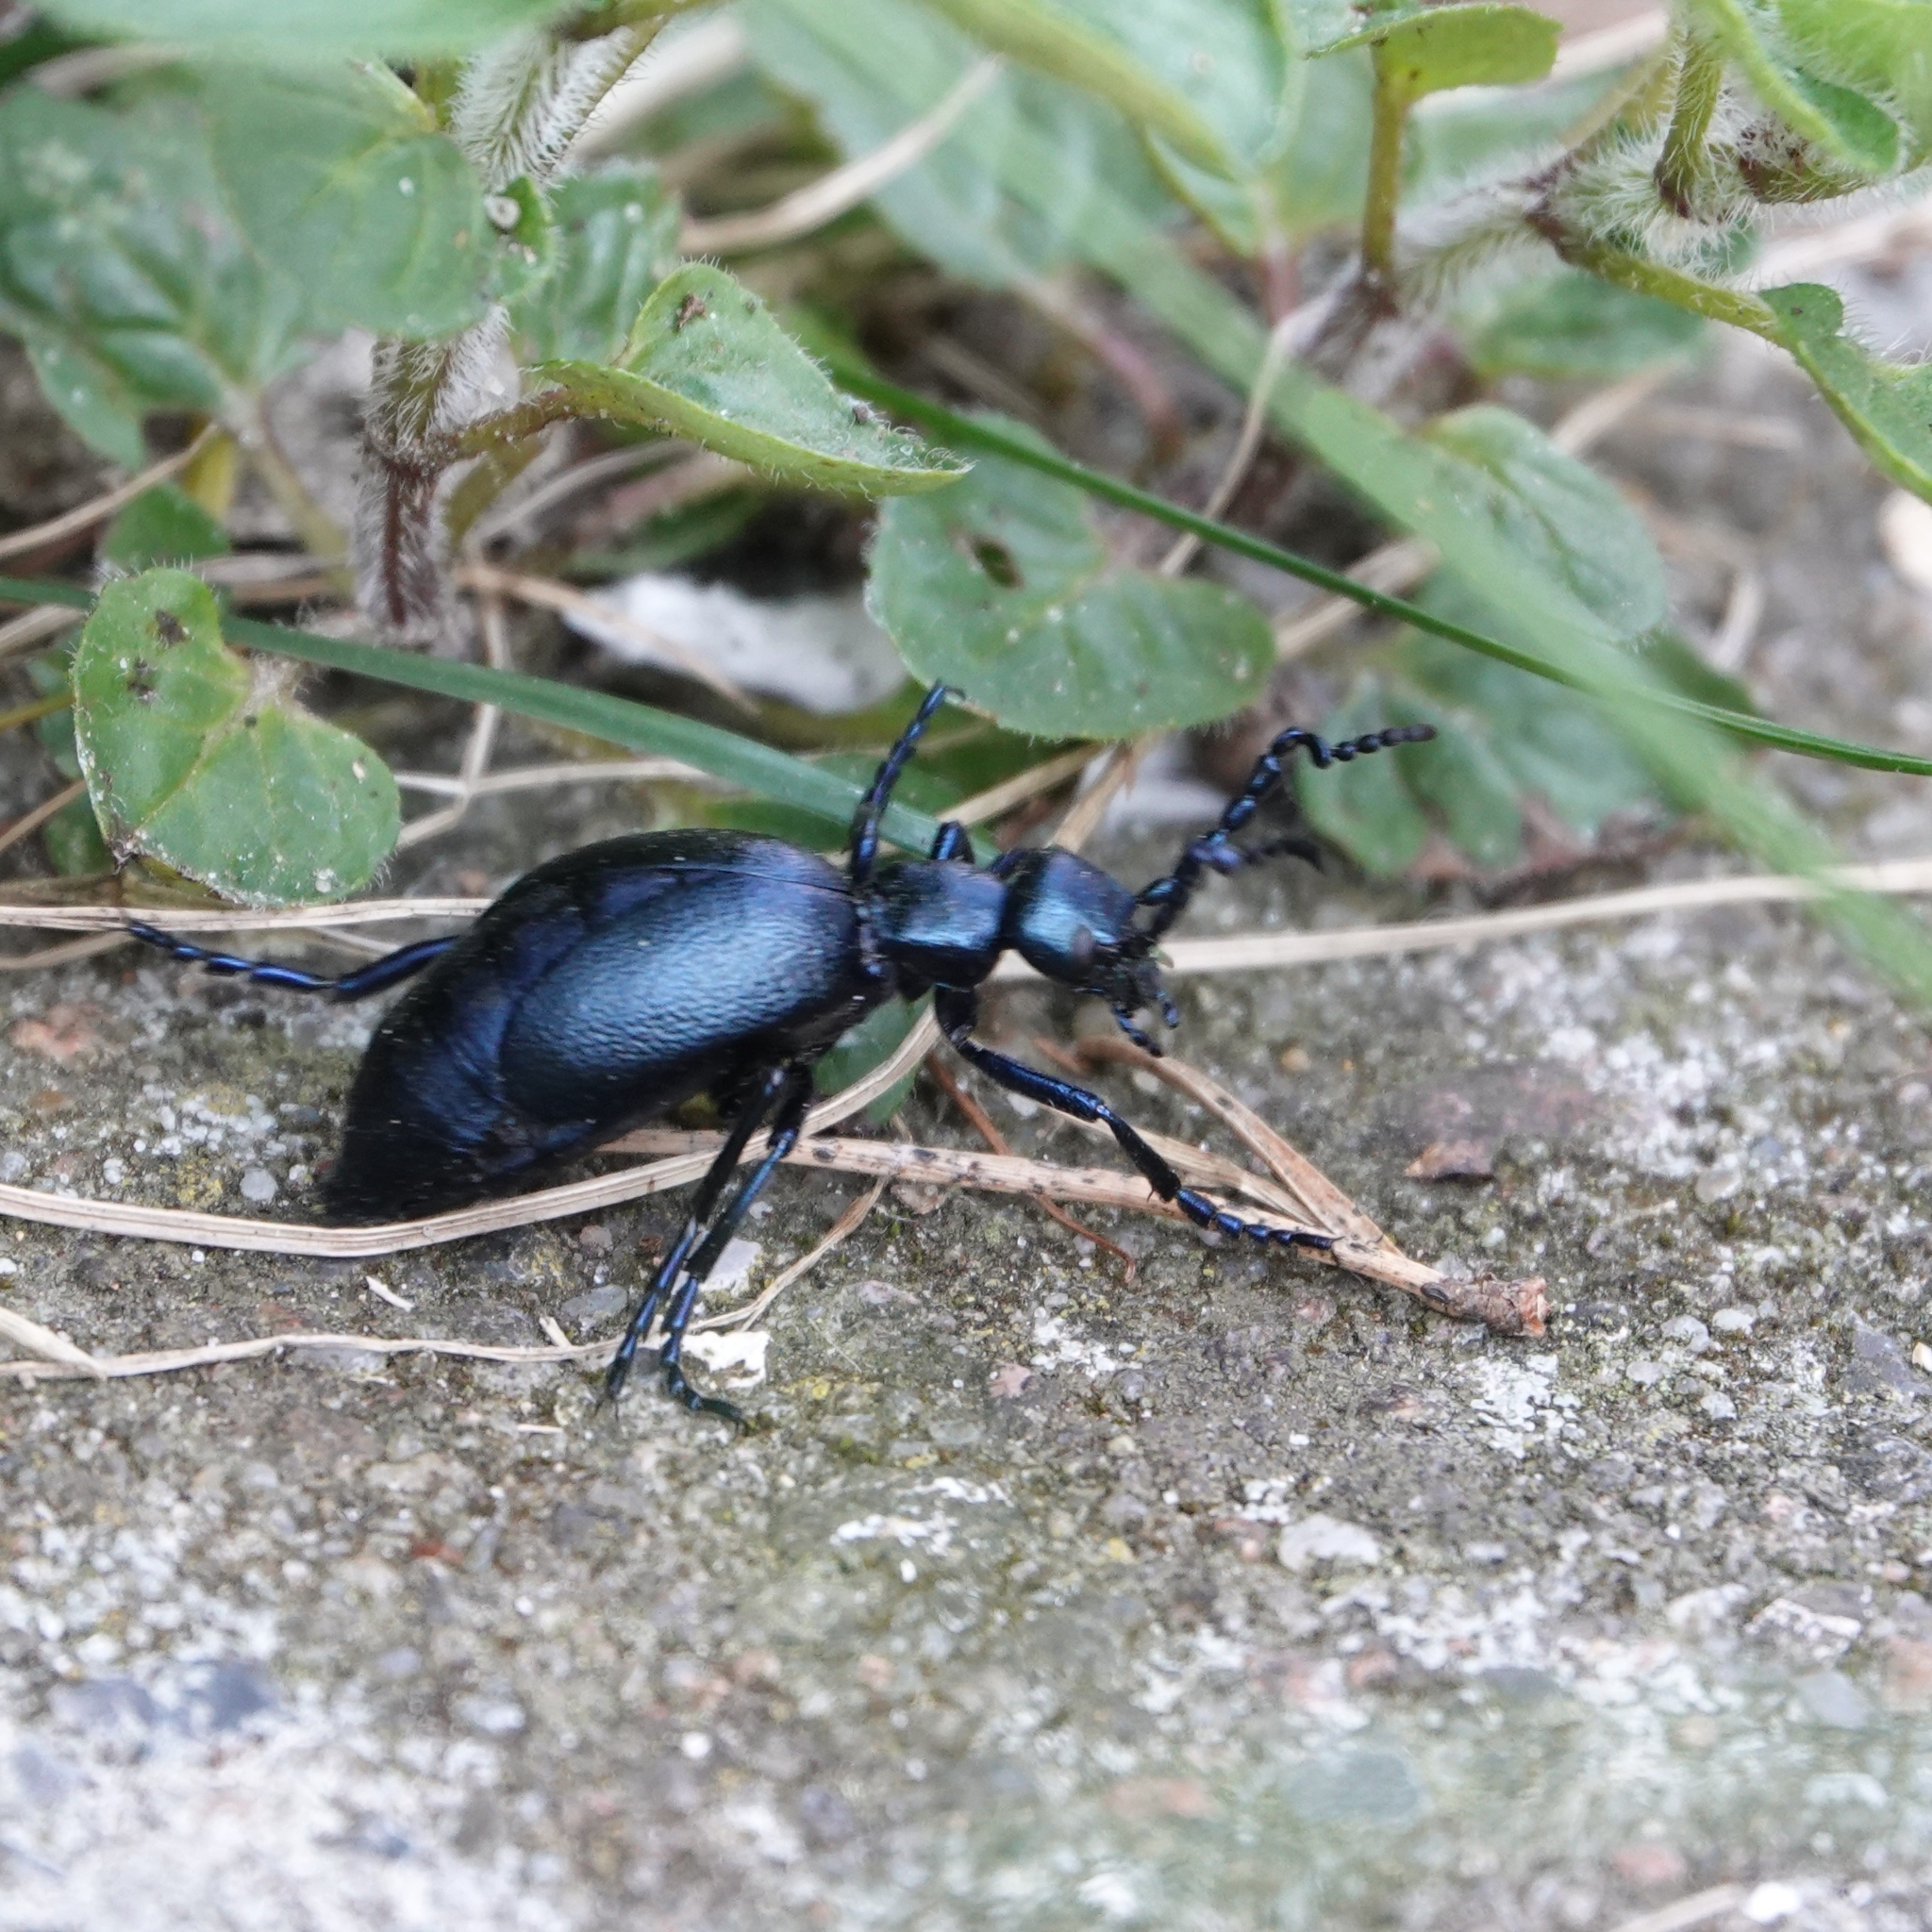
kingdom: Animalia
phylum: Arthropoda
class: Insecta
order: Coleoptera
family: Meloidae
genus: Meloe
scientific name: Meloe violaceus
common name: Violet oil-beetle
